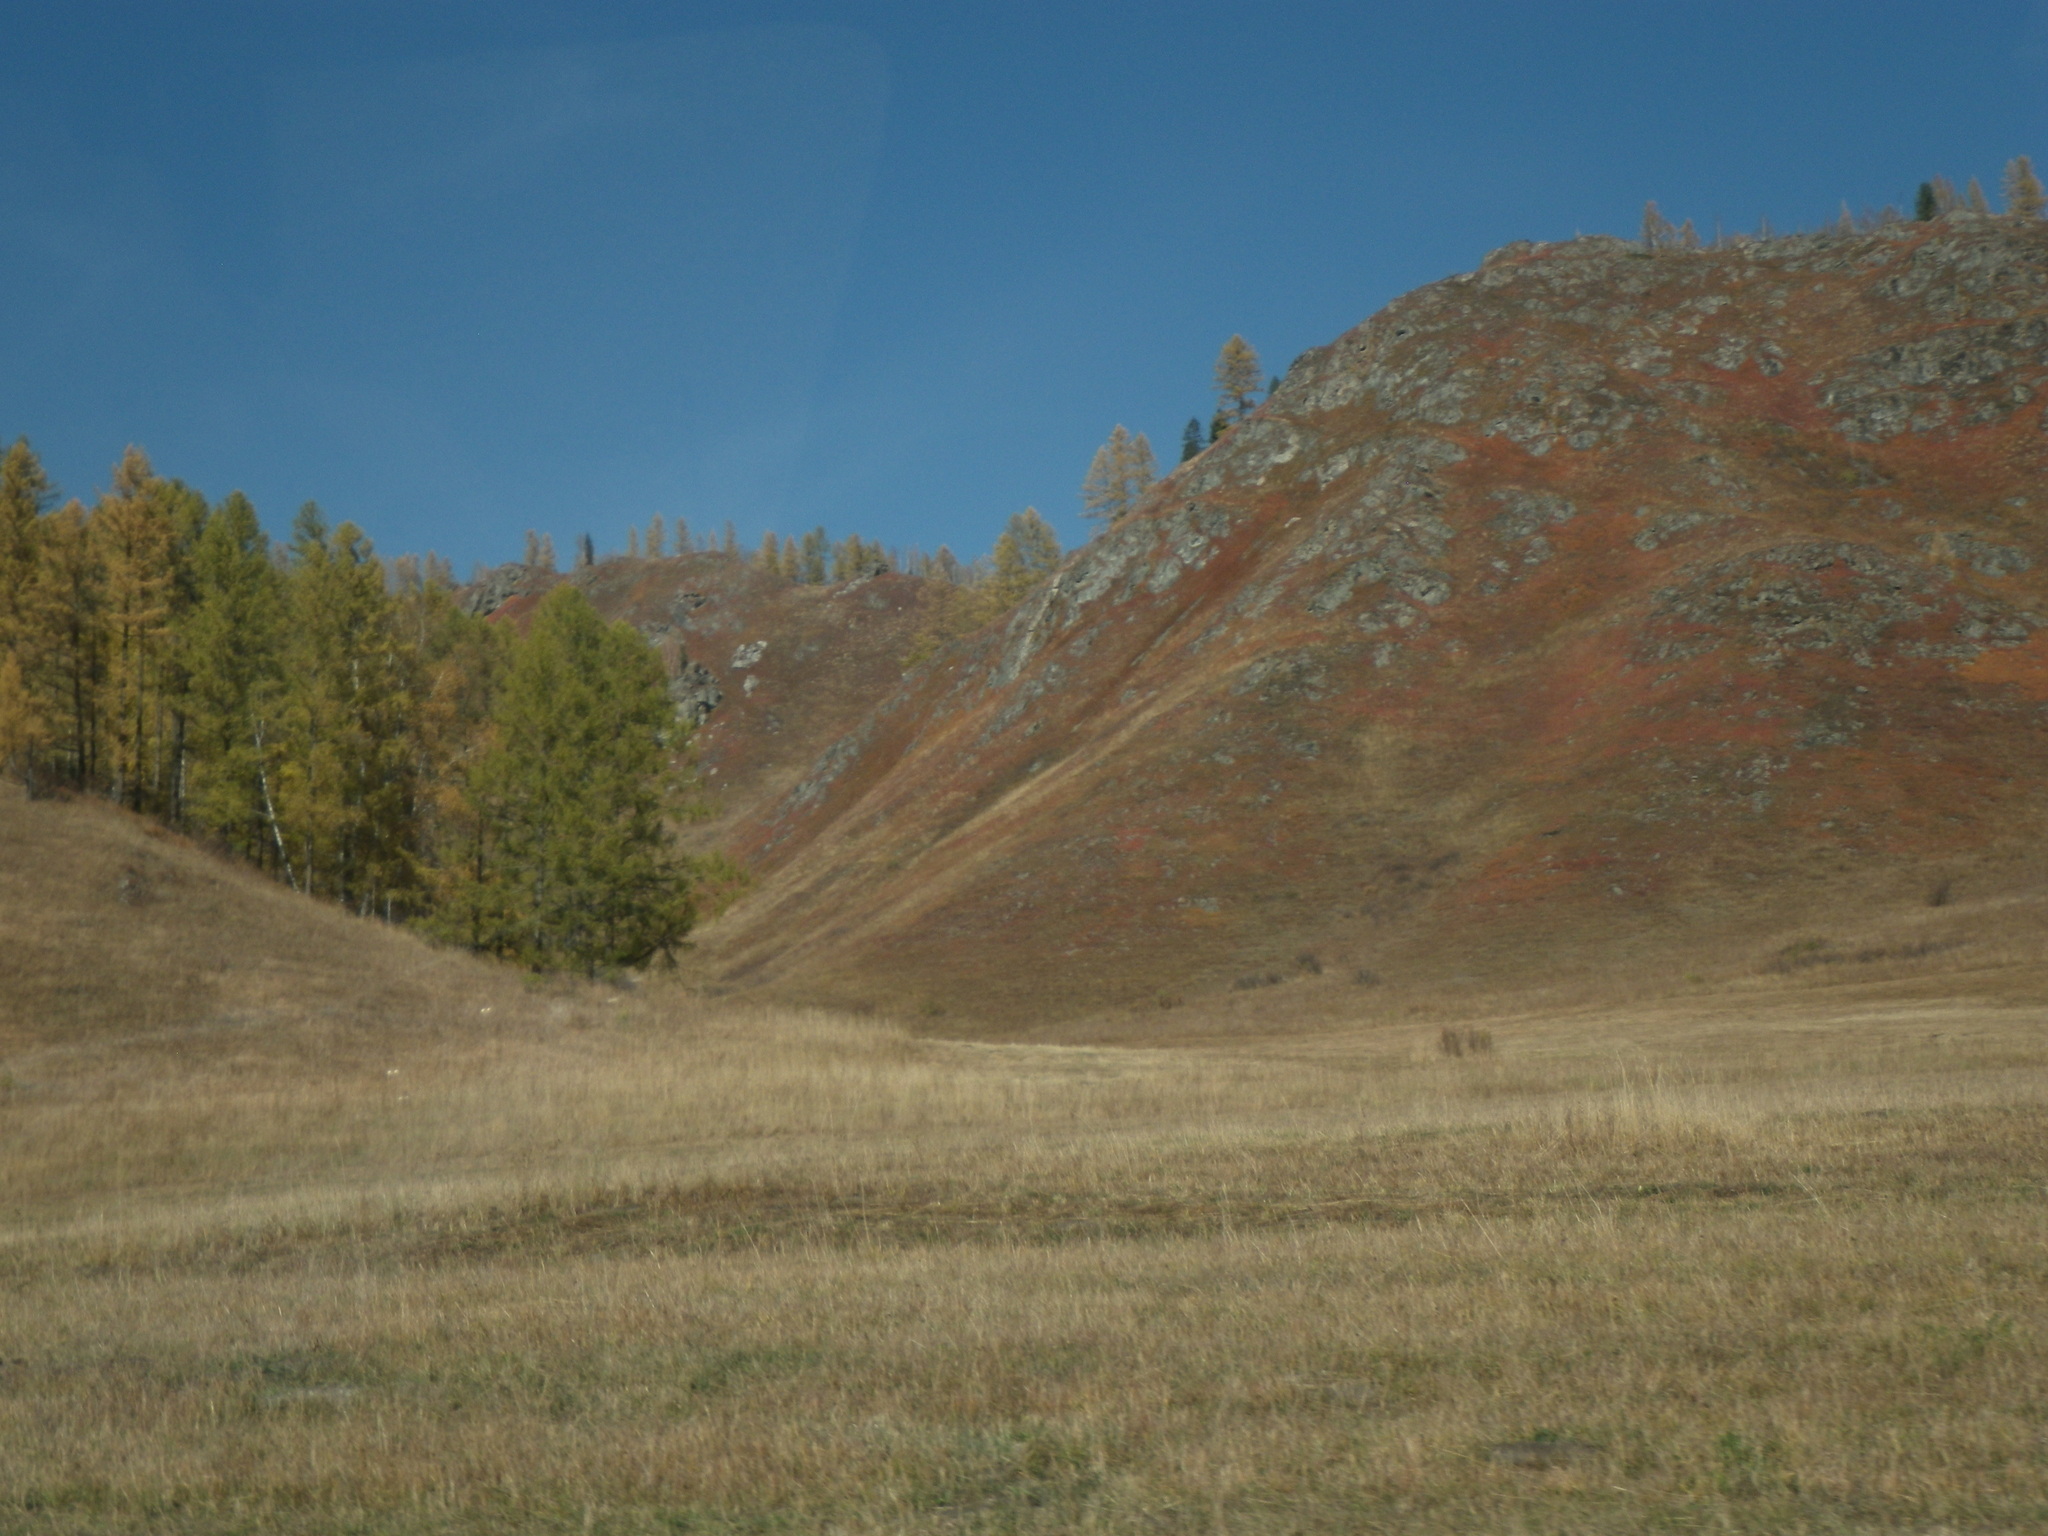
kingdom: Plantae
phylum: Tracheophyta
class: Pinopsida
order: Pinales
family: Pinaceae
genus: Larix
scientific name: Larix sibirica
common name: Siberian larch
